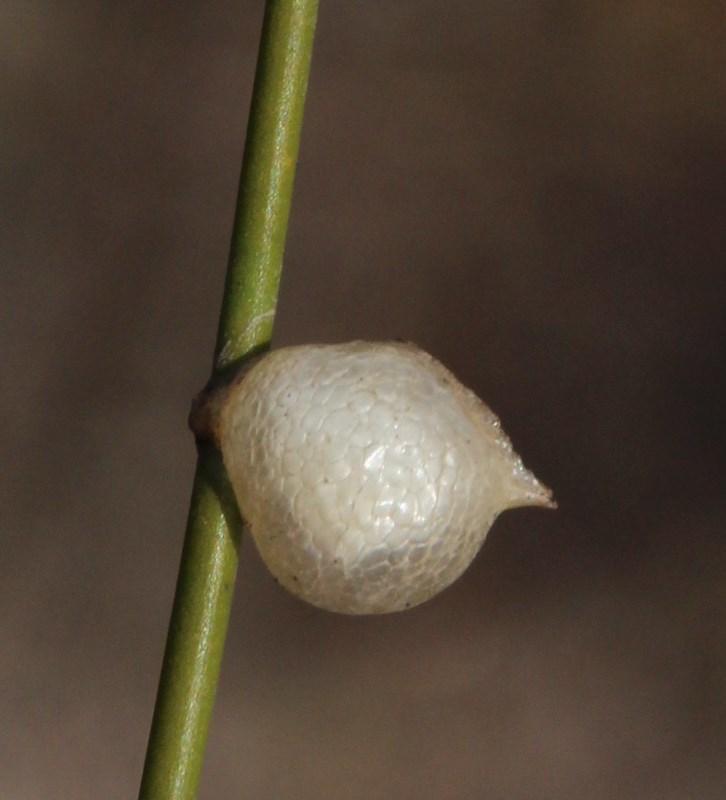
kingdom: Animalia
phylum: Arthropoda
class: Insecta
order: Mantodea
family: Hoplocoryphidae
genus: Hoplocoryphella
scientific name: Hoplocoryphella grandis
